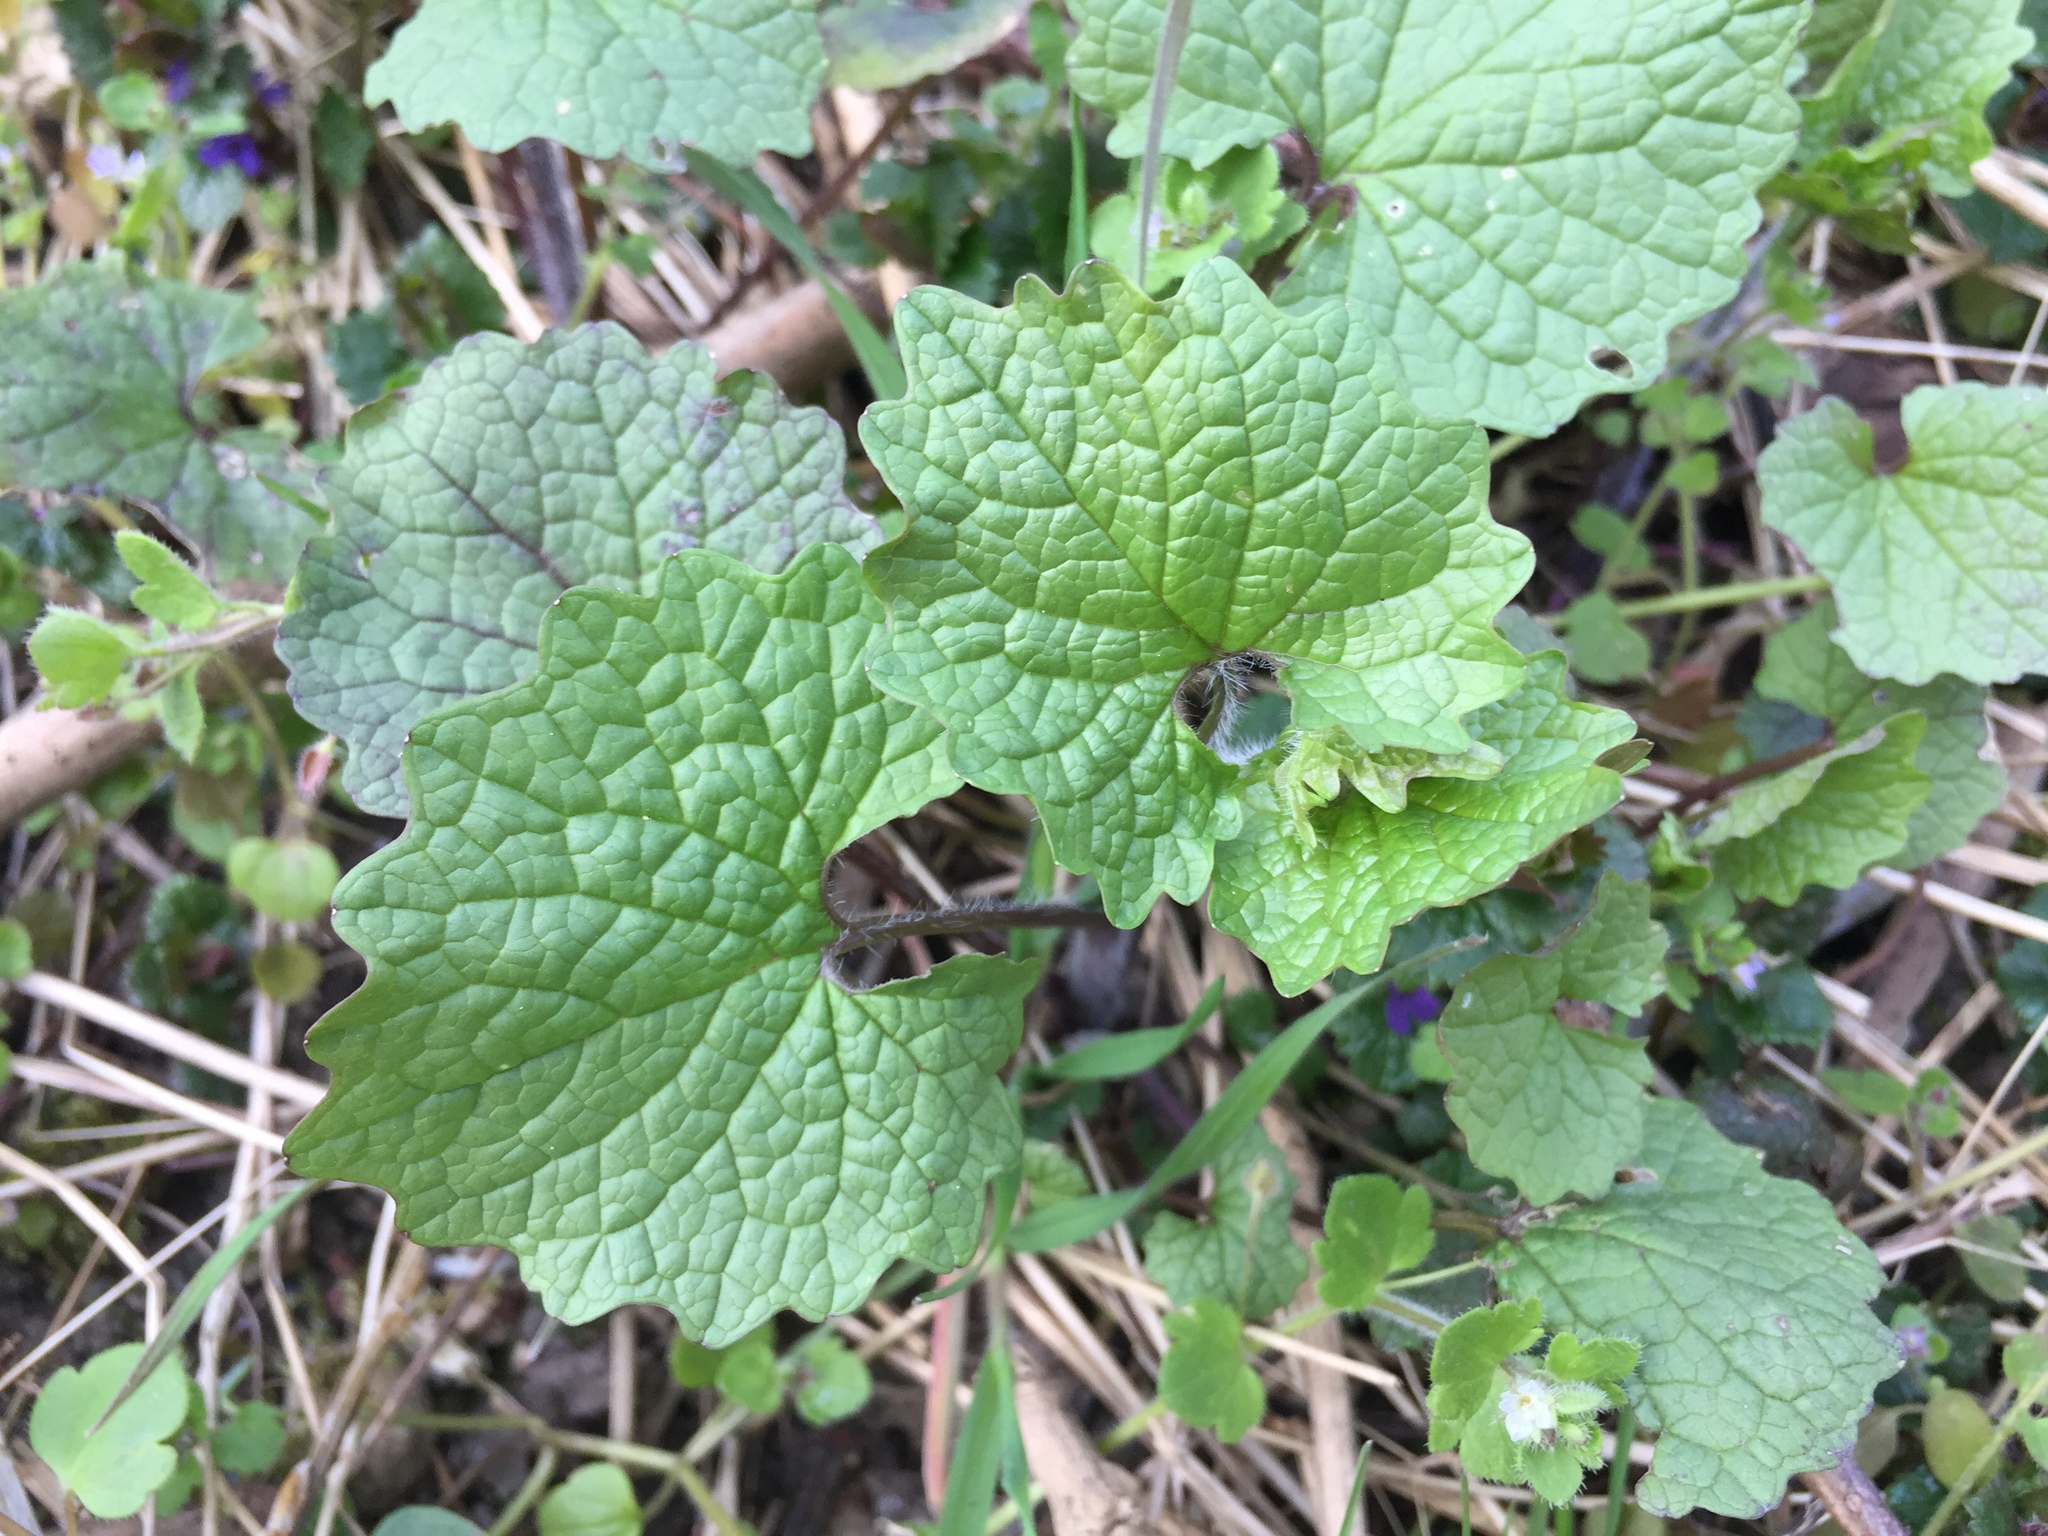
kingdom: Plantae
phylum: Tracheophyta
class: Magnoliopsida
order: Brassicales
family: Brassicaceae
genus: Alliaria
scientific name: Alliaria petiolata
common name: Garlic mustard
